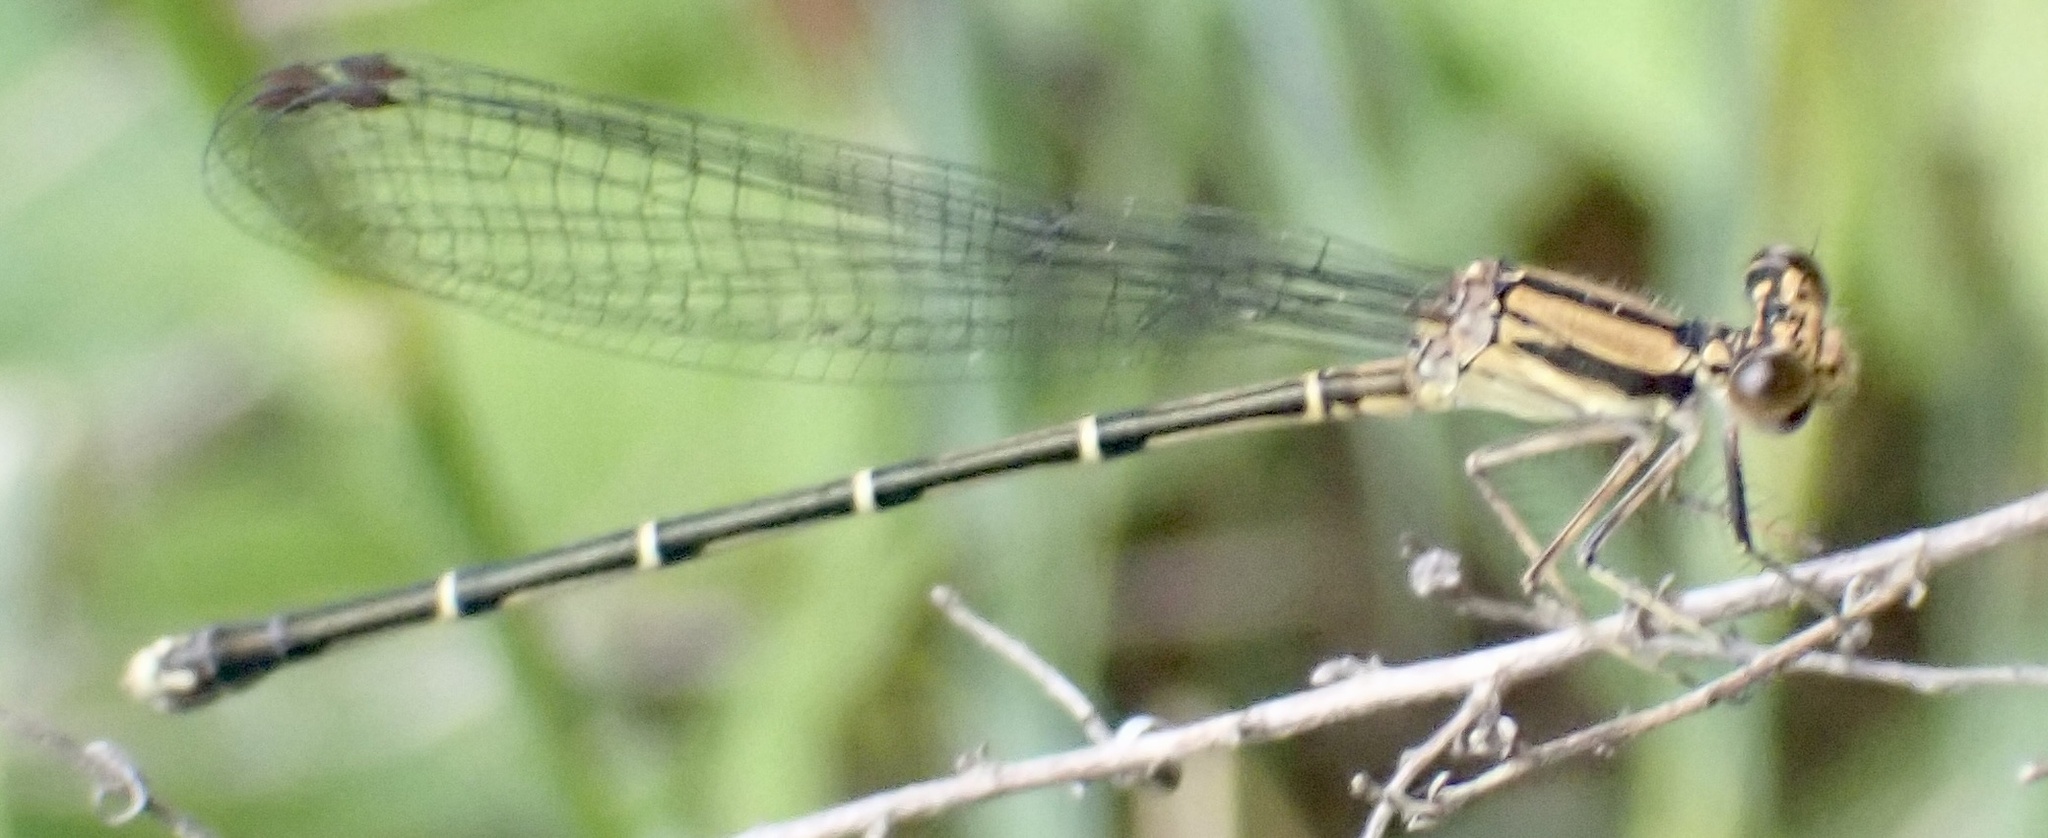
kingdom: Animalia
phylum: Arthropoda
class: Insecta
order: Odonata
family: Coenagrionidae
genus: Argia
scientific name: Argia tibialis
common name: Blue-tipped dancer
